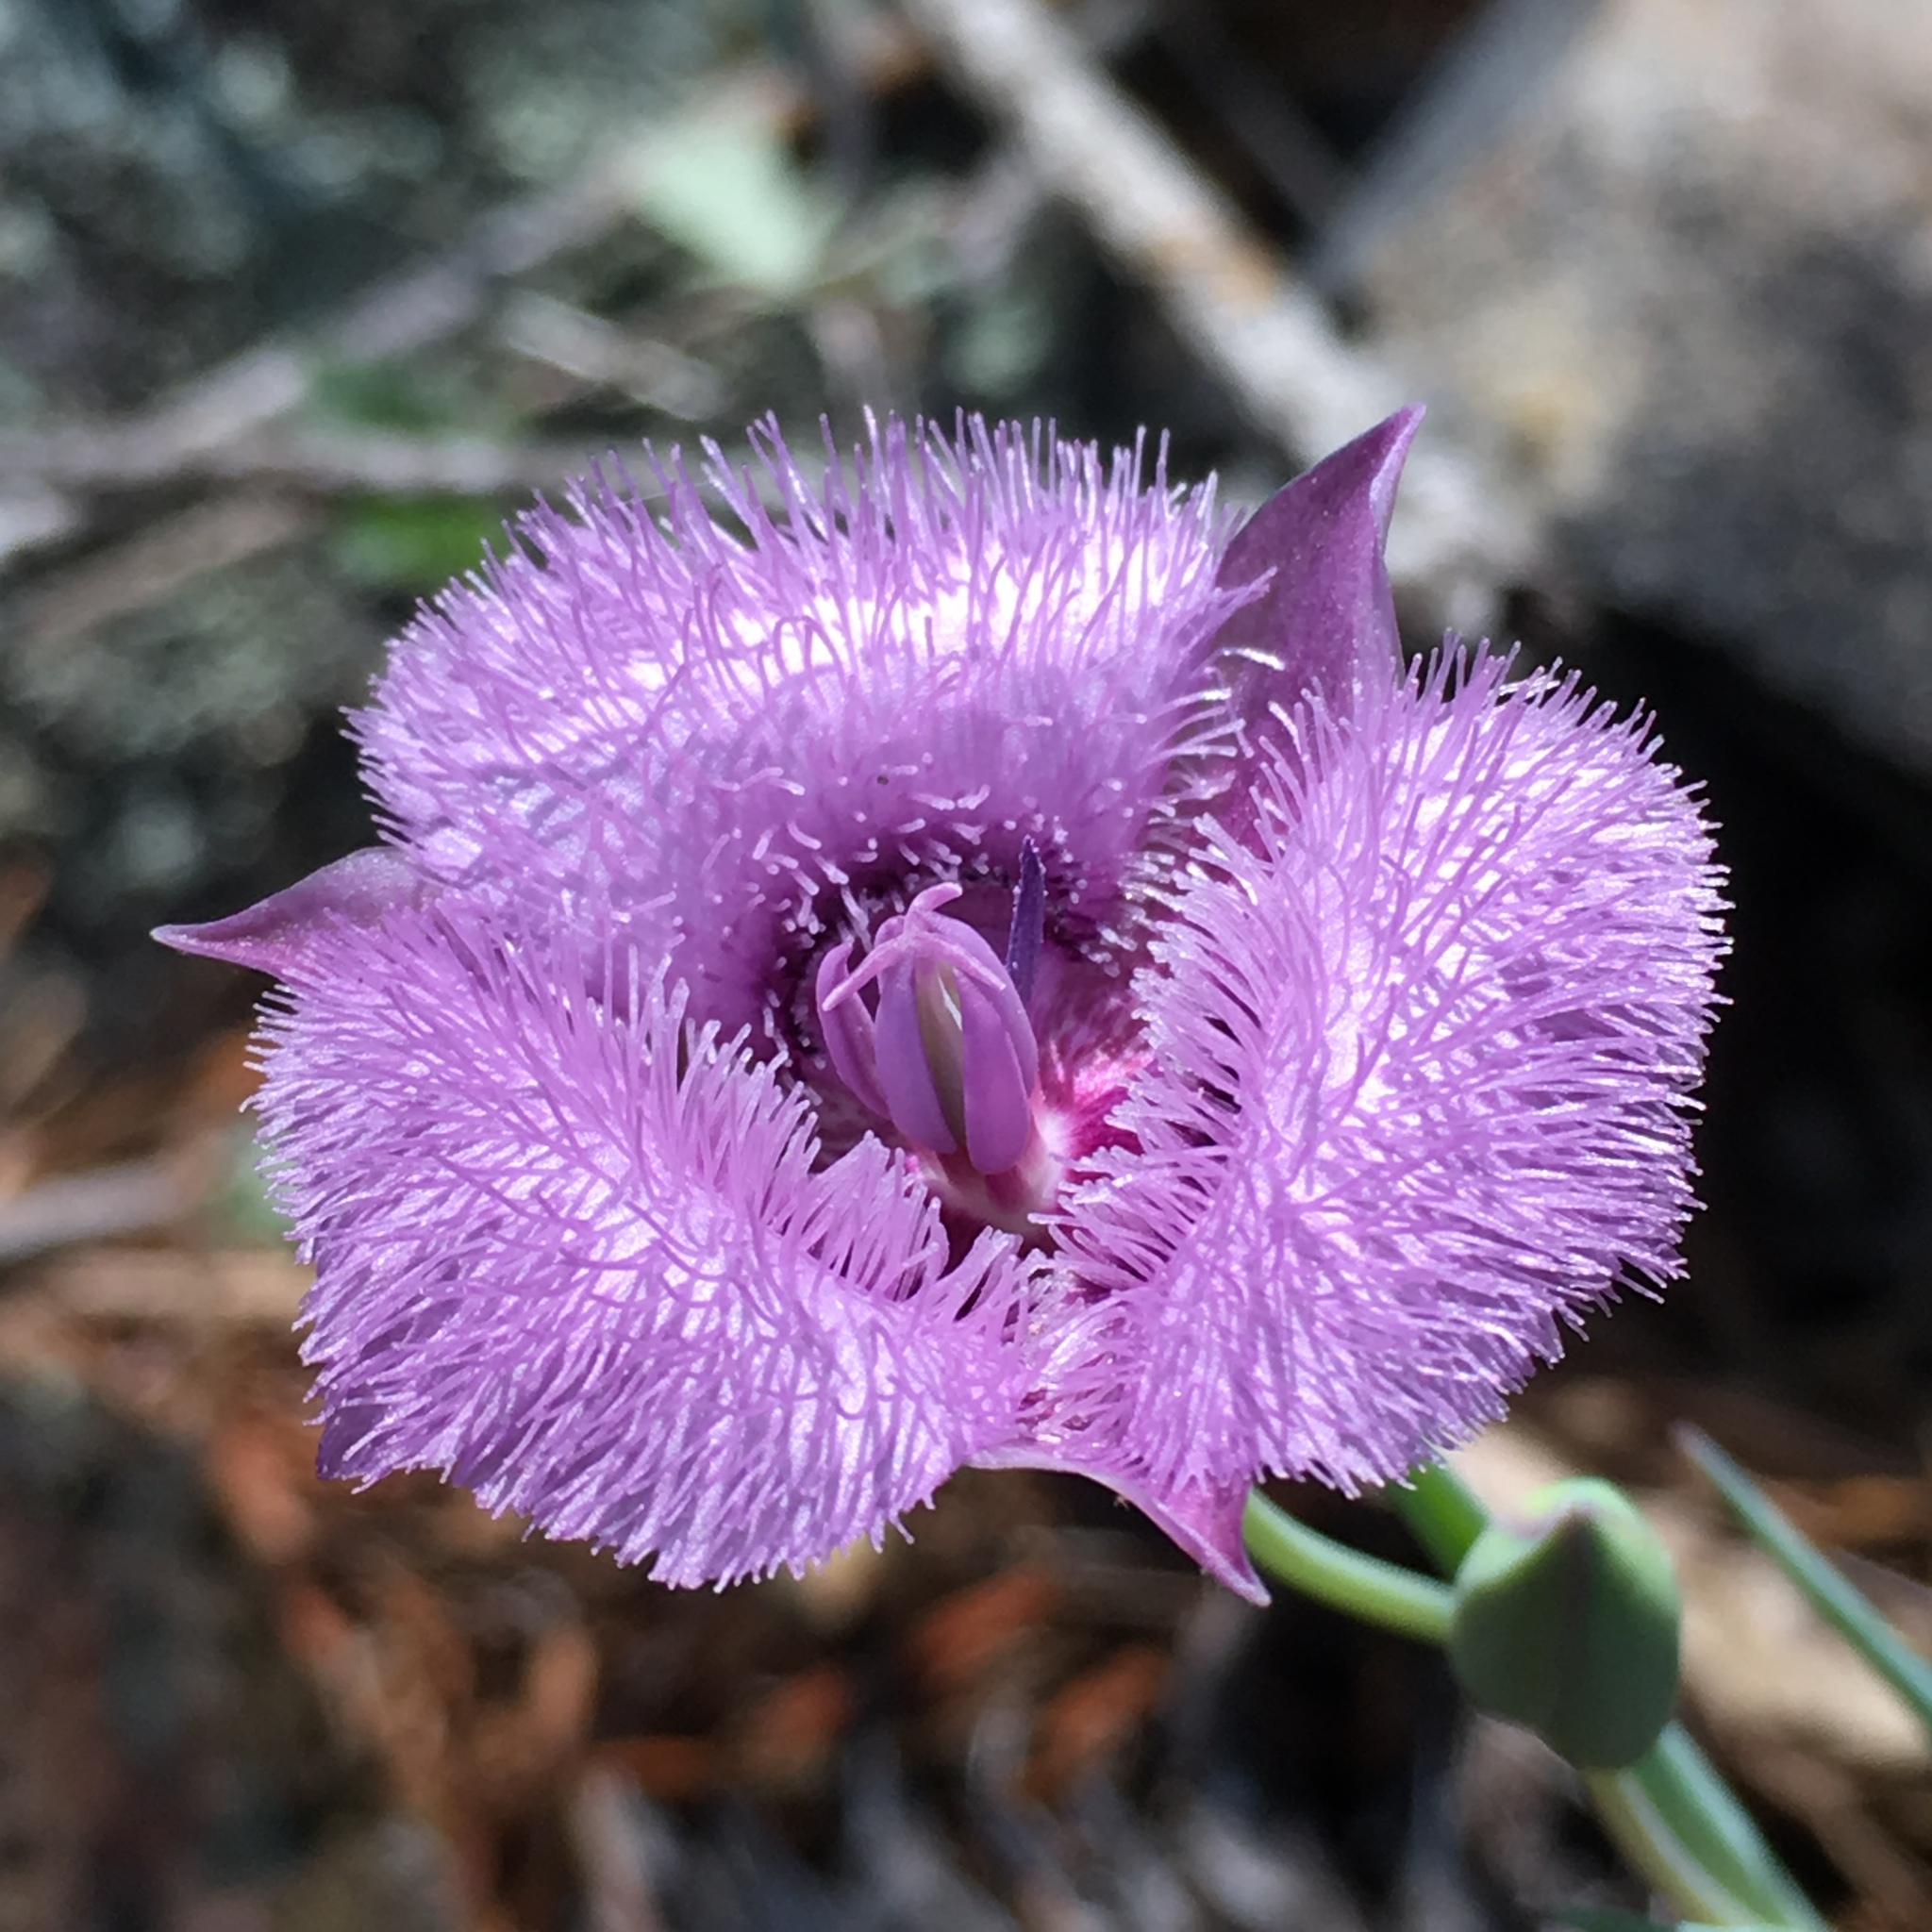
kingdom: Plantae
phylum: Tracheophyta
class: Liliopsida
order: Liliales
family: Liliaceae
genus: Calochortus
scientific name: Calochortus tolmiei
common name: Pussy-ears
